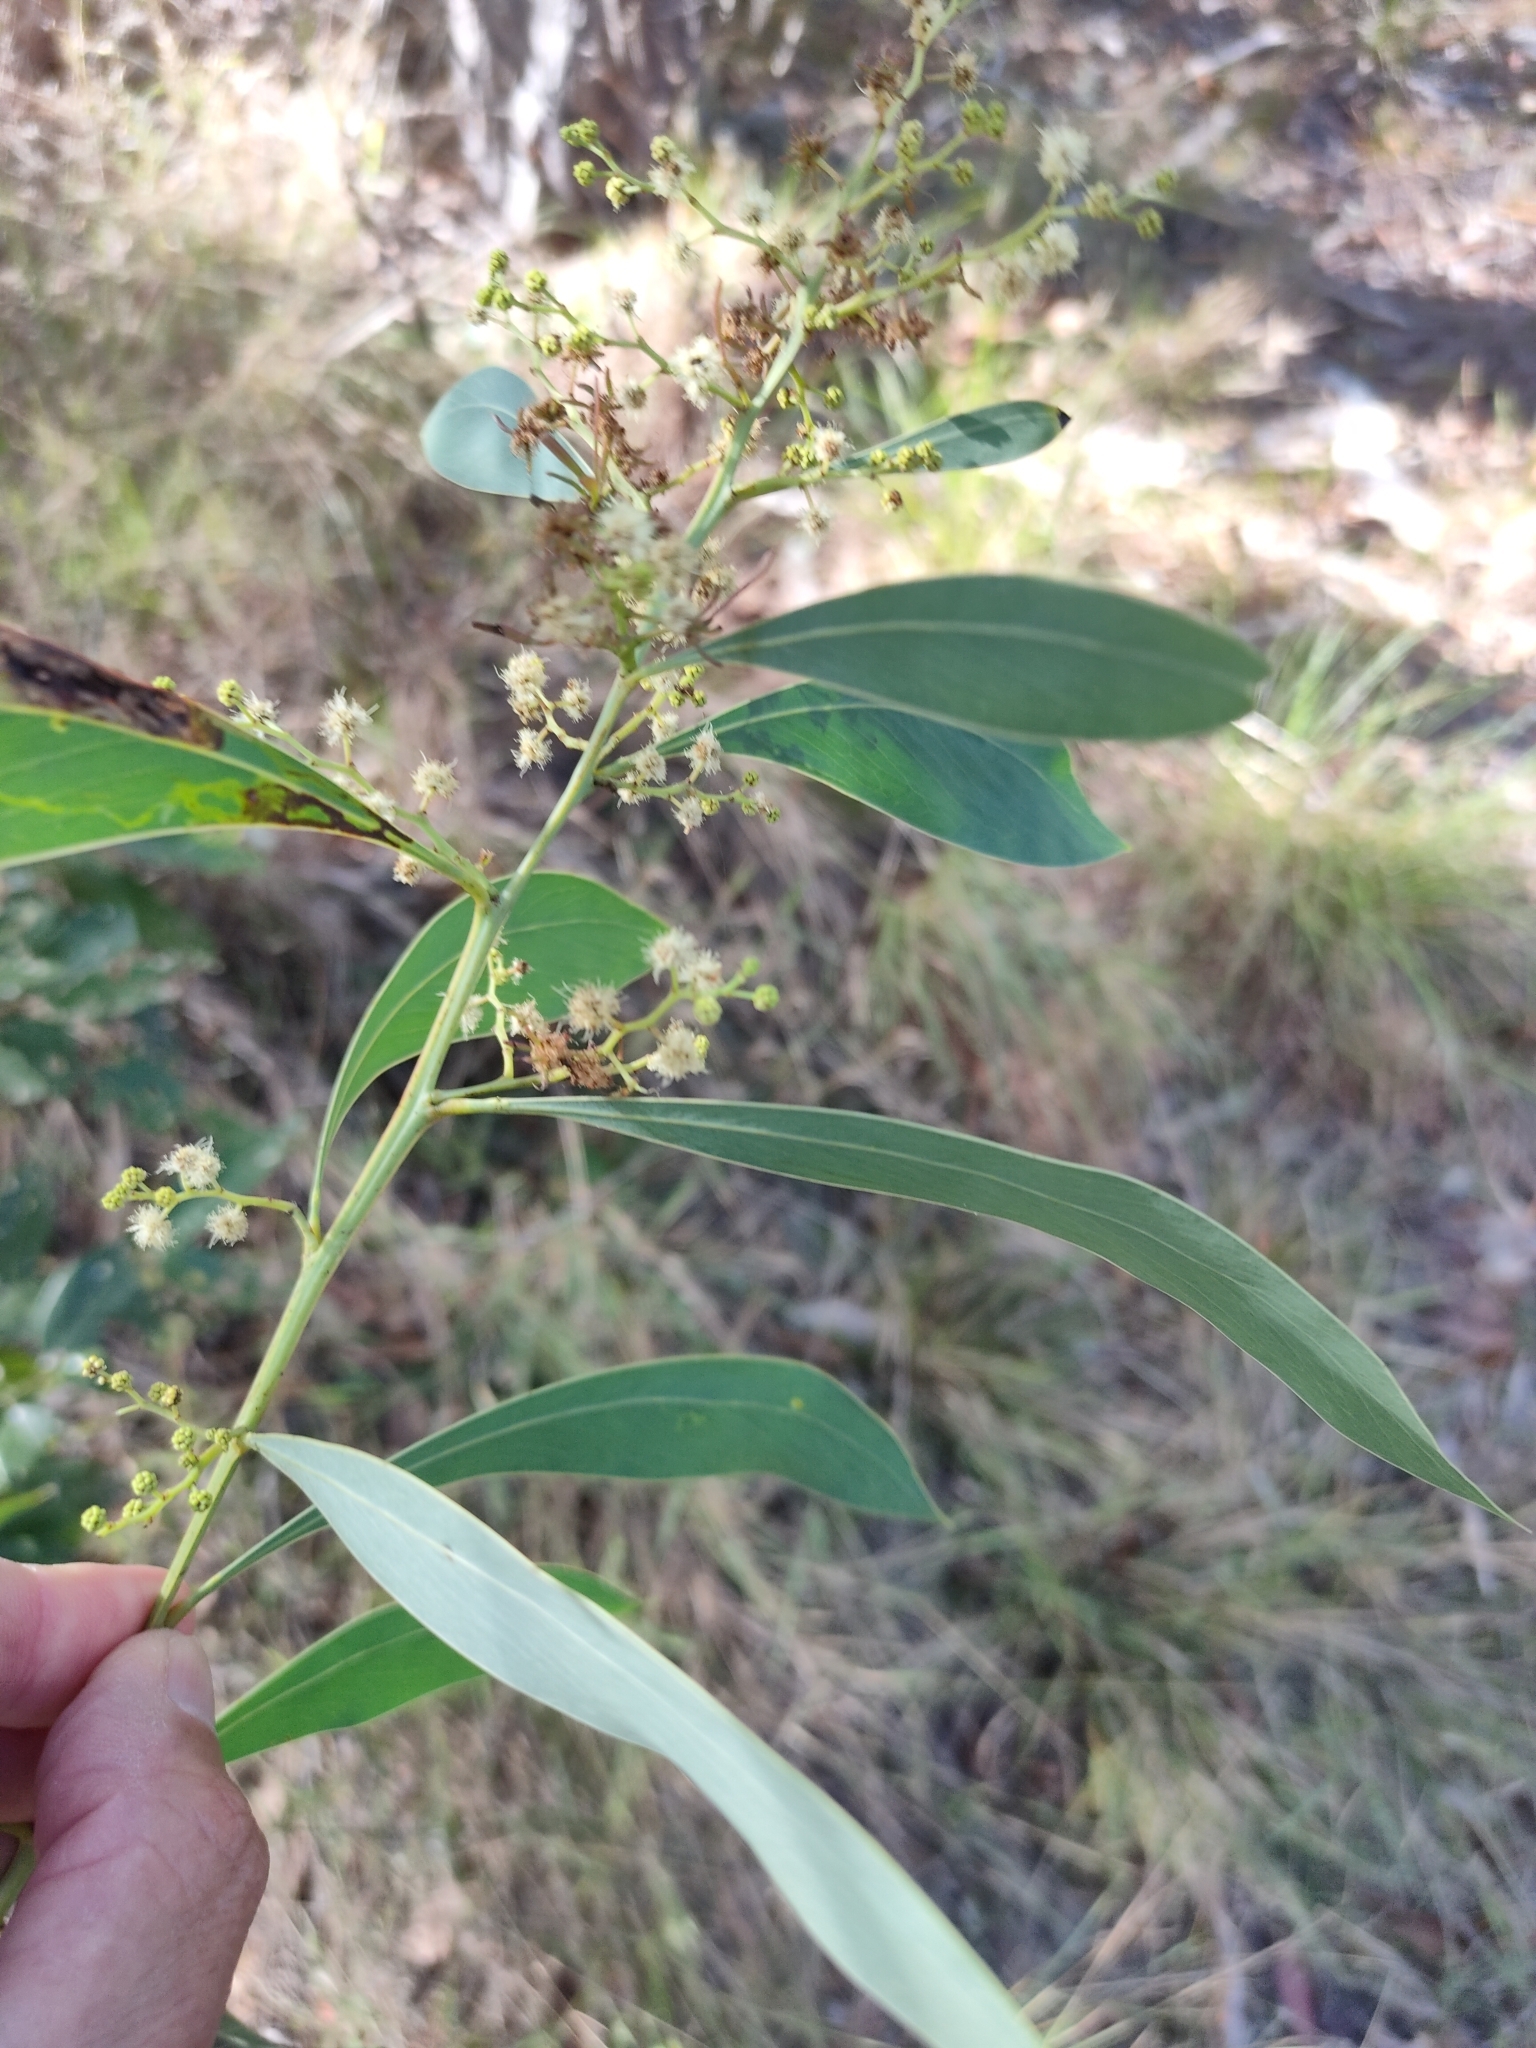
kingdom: Plantae
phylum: Tracheophyta
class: Magnoliopsida
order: Fabales
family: Fabaceae
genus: Acacia
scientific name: Acacia falcata
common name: Burra acacia
